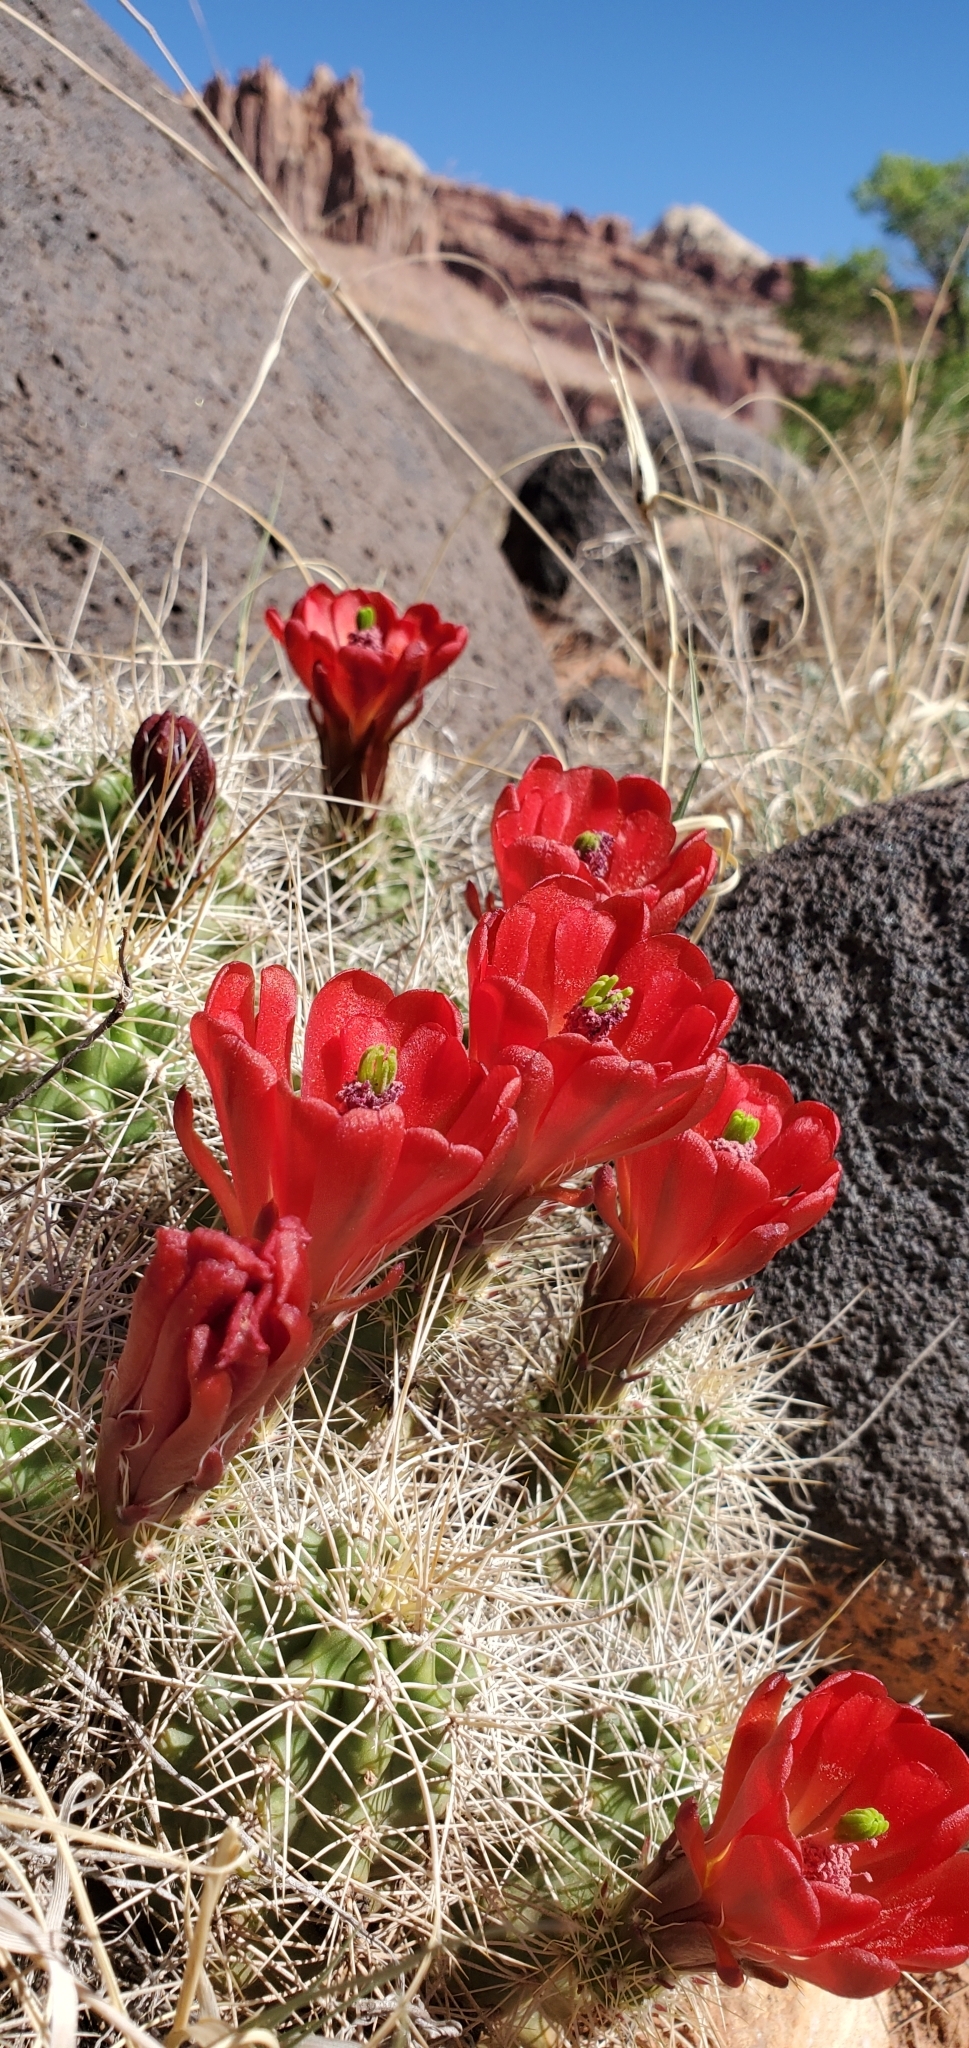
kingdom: Plantae
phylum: Tracheophyta
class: Magnoliopsida
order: Caryophyllales
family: Cactaceae
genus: Echinocereus
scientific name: Echinocereus triglochidiatus
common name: Claretcup hedgehog
